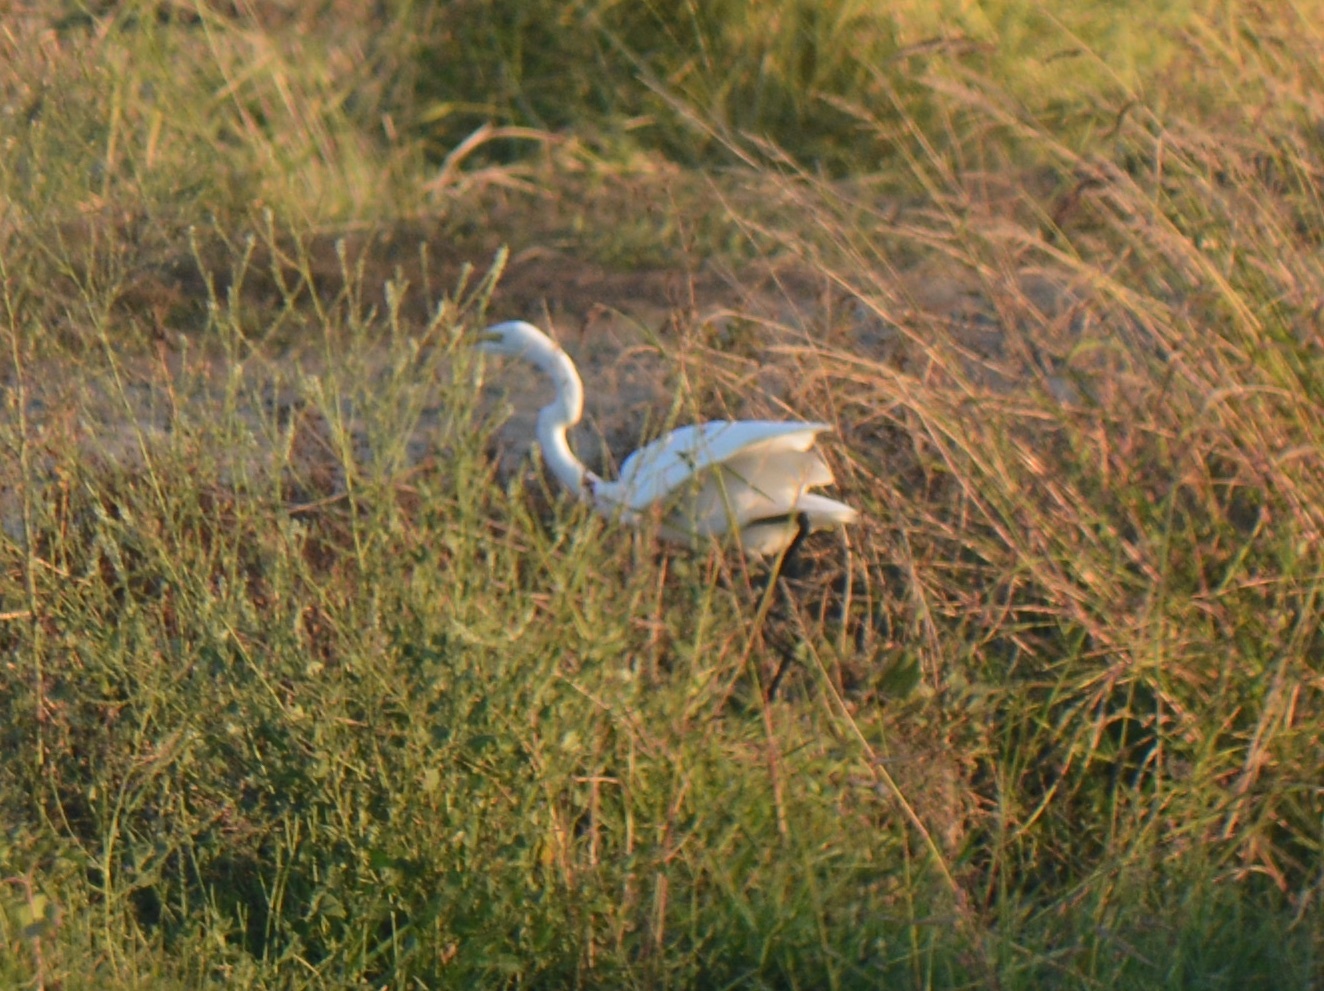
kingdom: Animalia
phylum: Chordata
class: Aves
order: Pelecaniformes
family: Ardeidae
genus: Ardea
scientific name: Ardea alba
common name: Great egret
